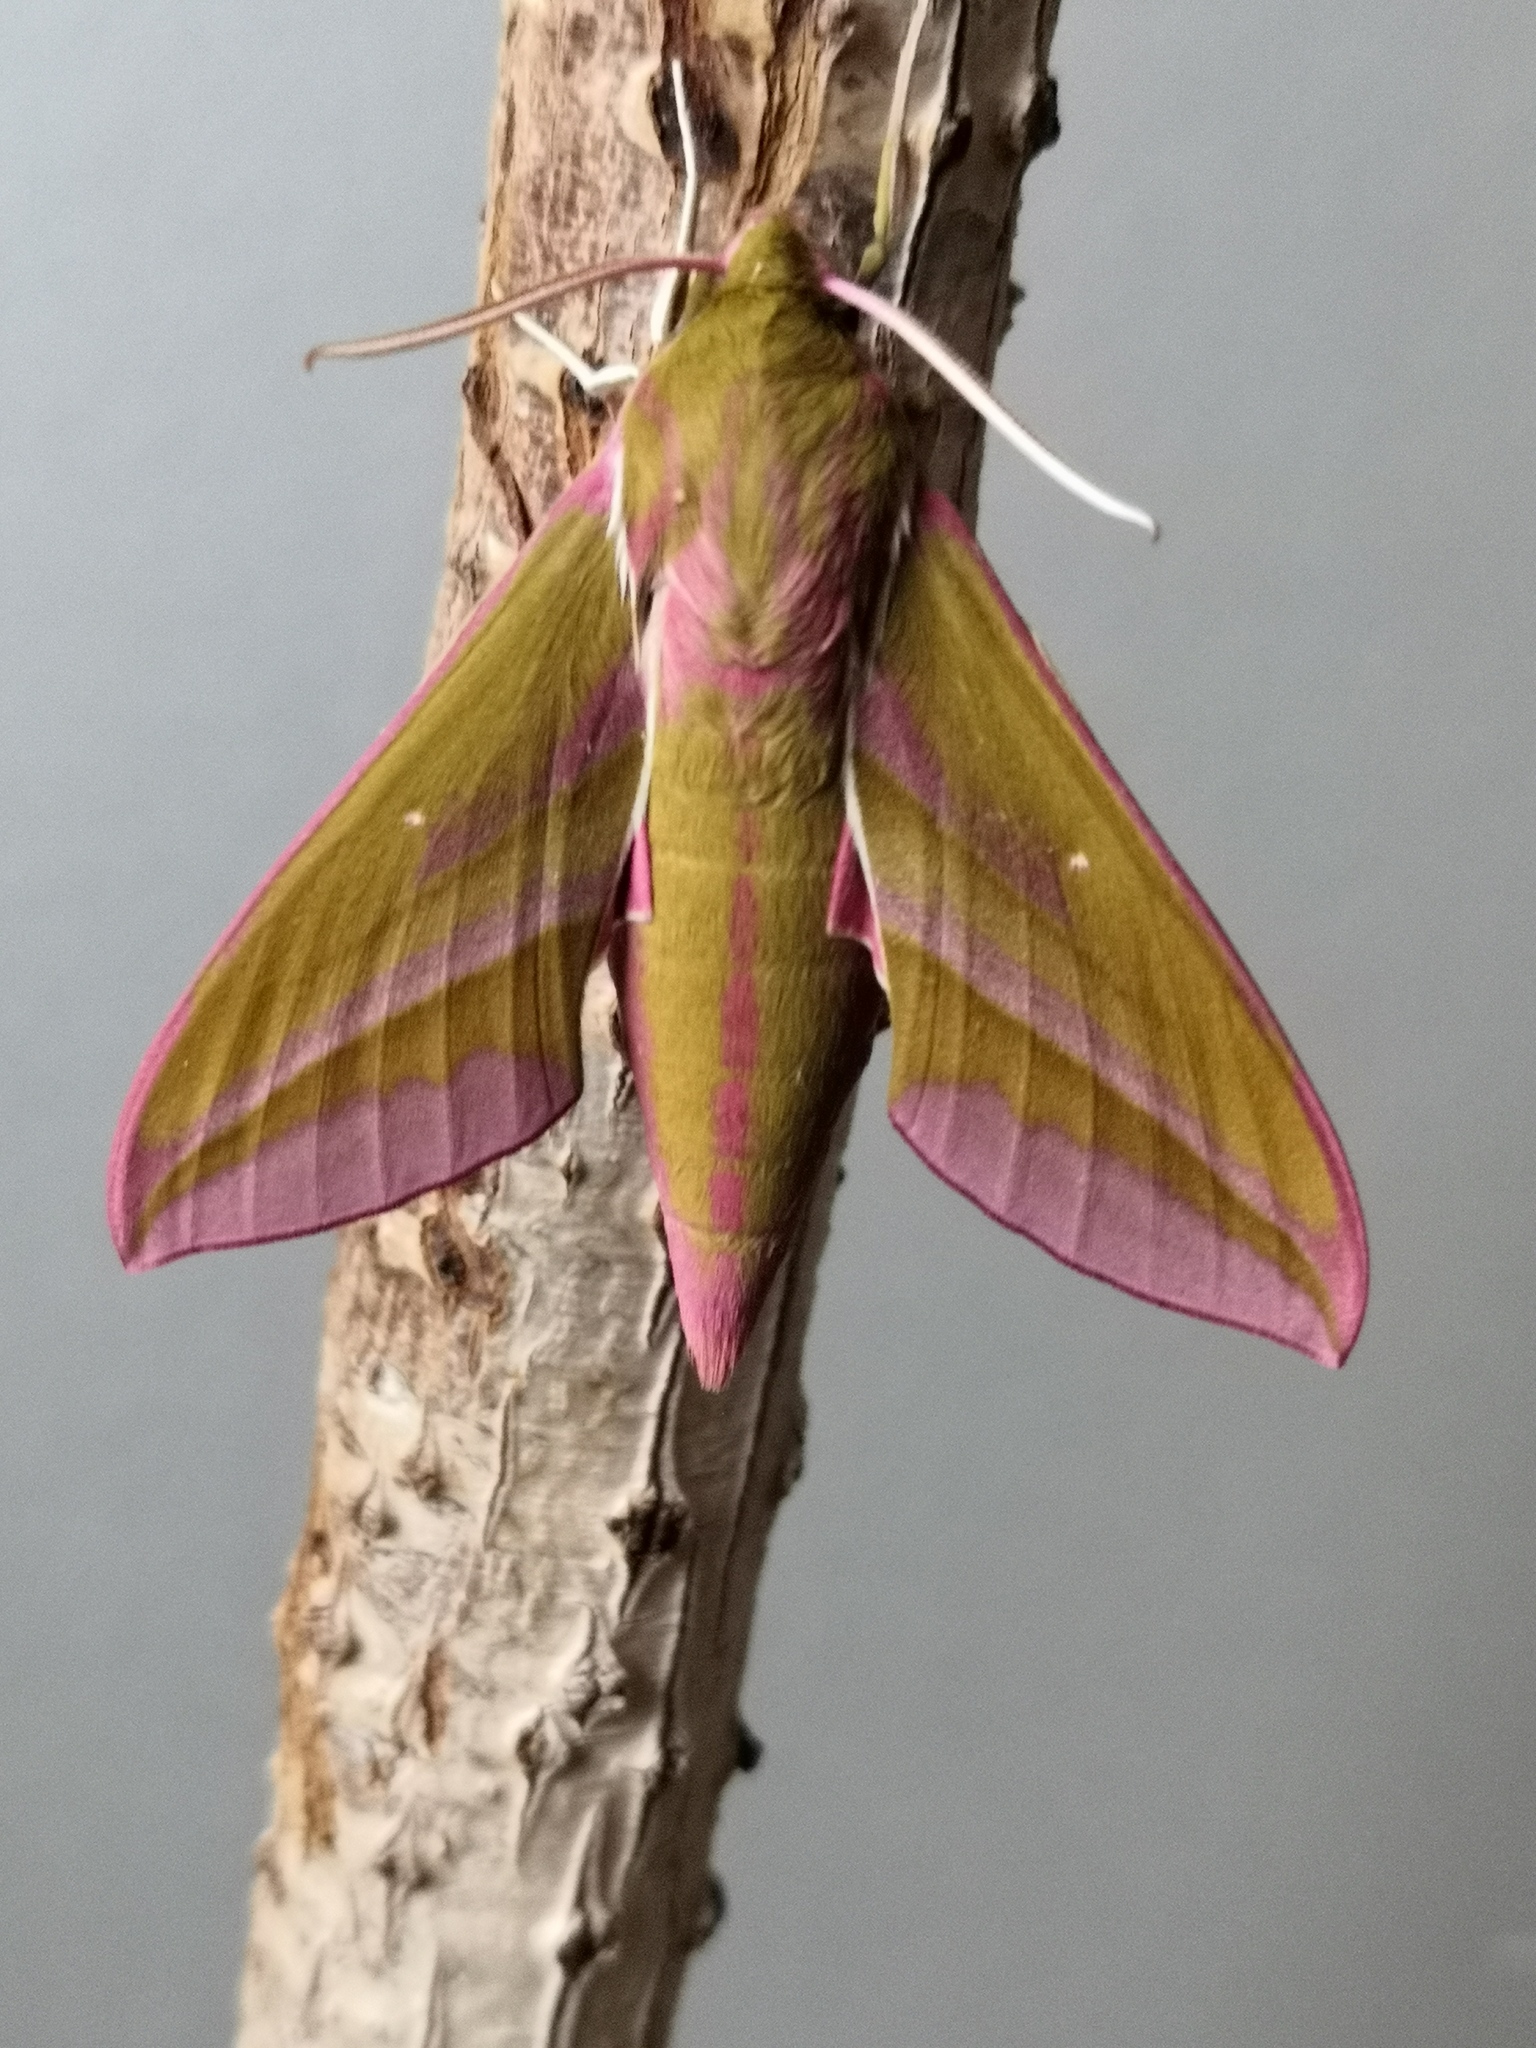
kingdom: Animalia
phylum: Arthropoda
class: Insecta
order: Lepidoptera
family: Sphingidae
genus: Deilephila
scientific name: Deilephila elpenor
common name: Elephant hawk-moth
